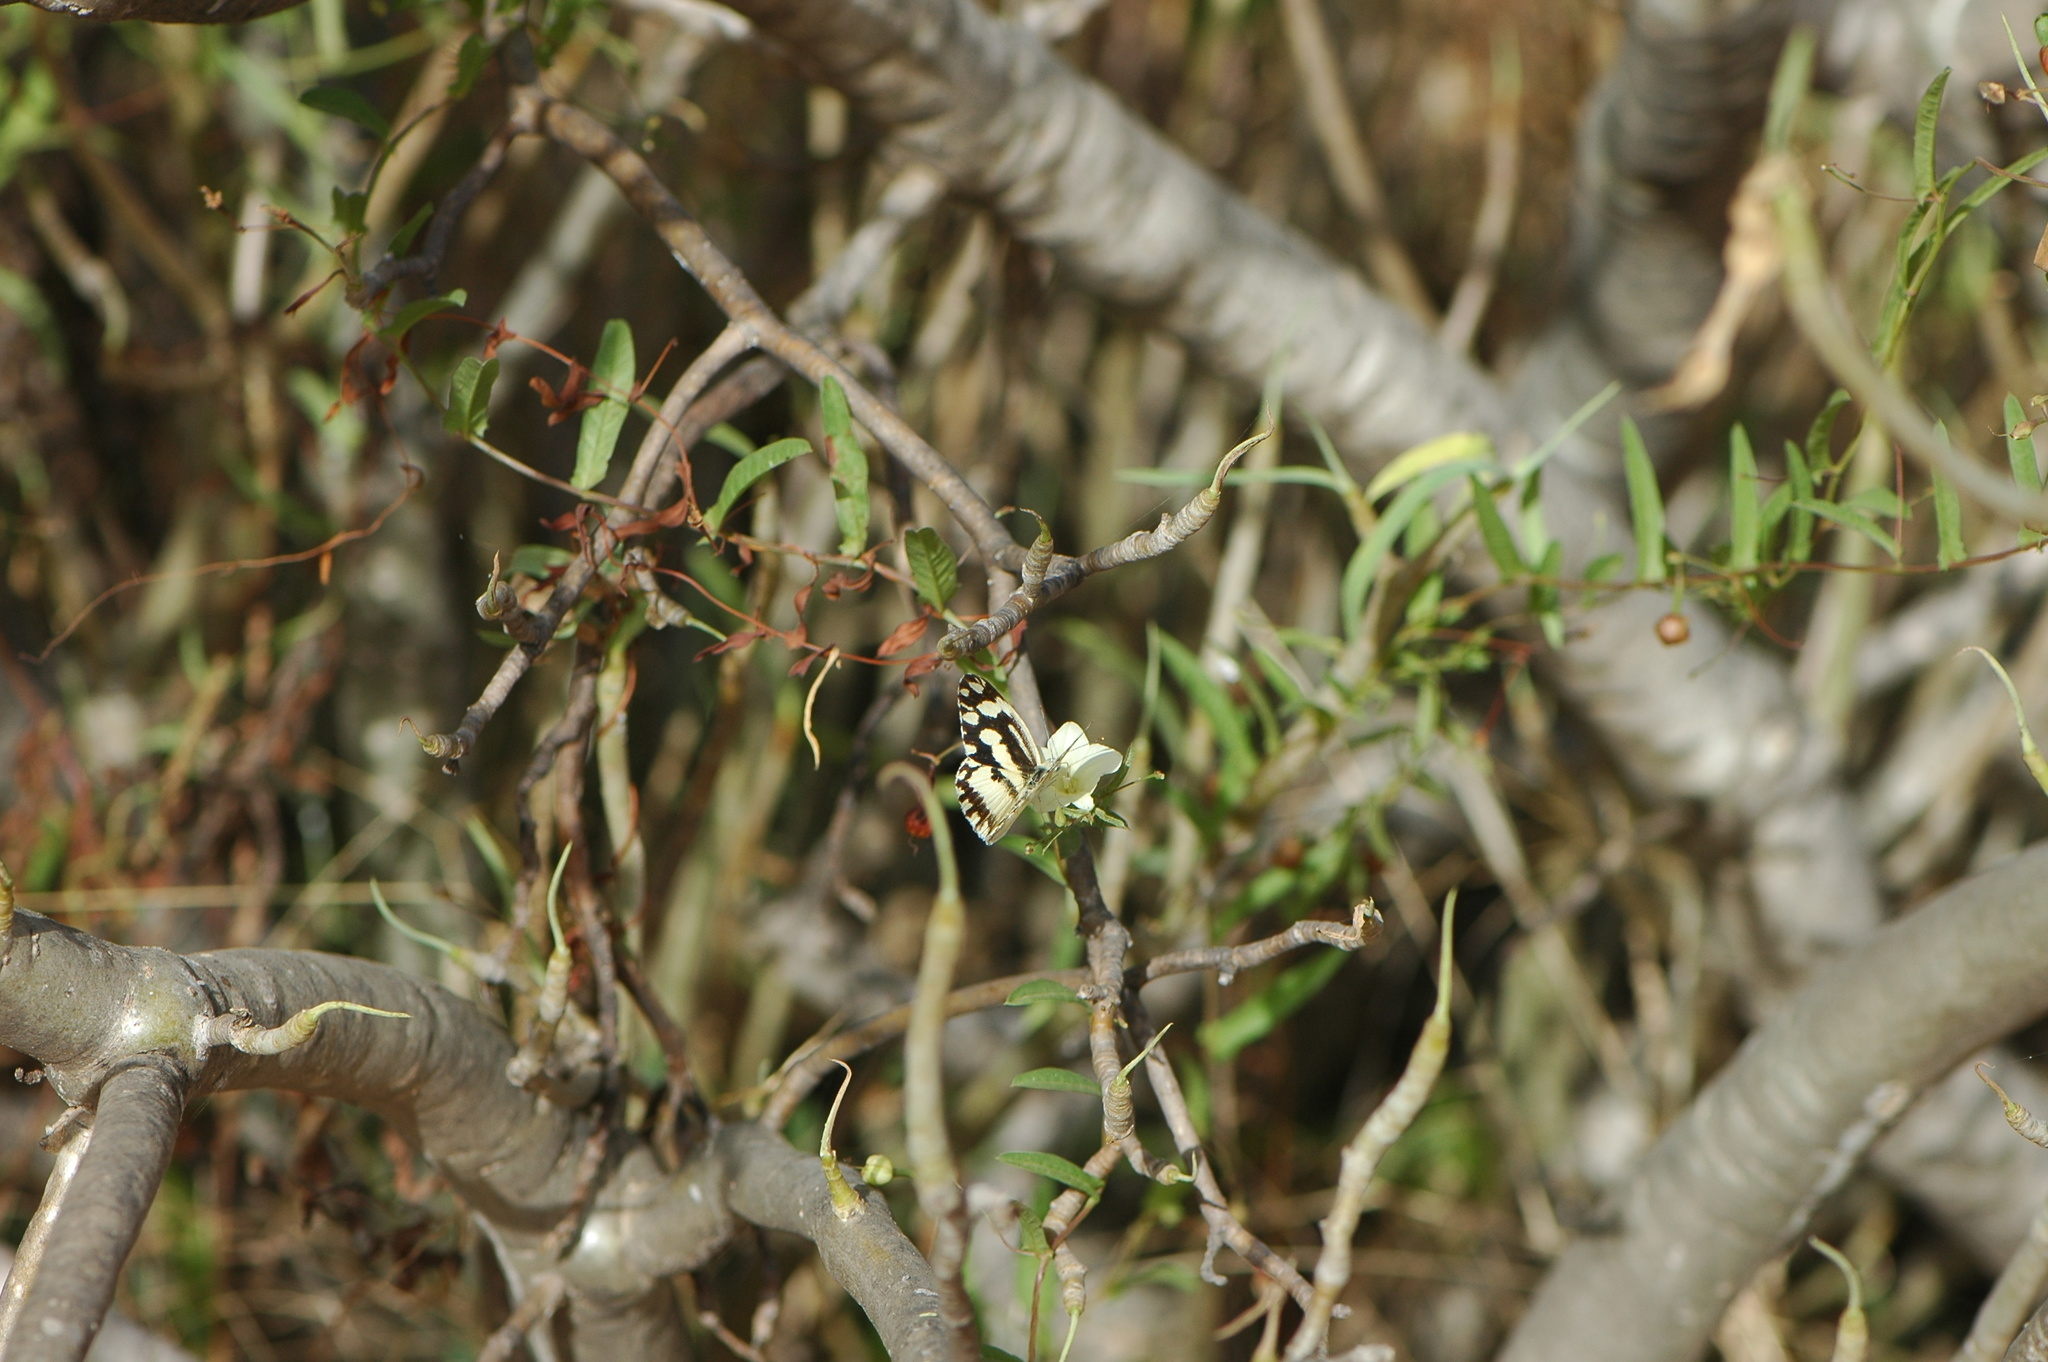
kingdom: Animalia
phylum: Arthropoda
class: Insecta
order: Lepidoptera
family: Pieridae
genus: Pinacopteryx
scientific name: Pinacopteryx eriphia
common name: Zebra white
